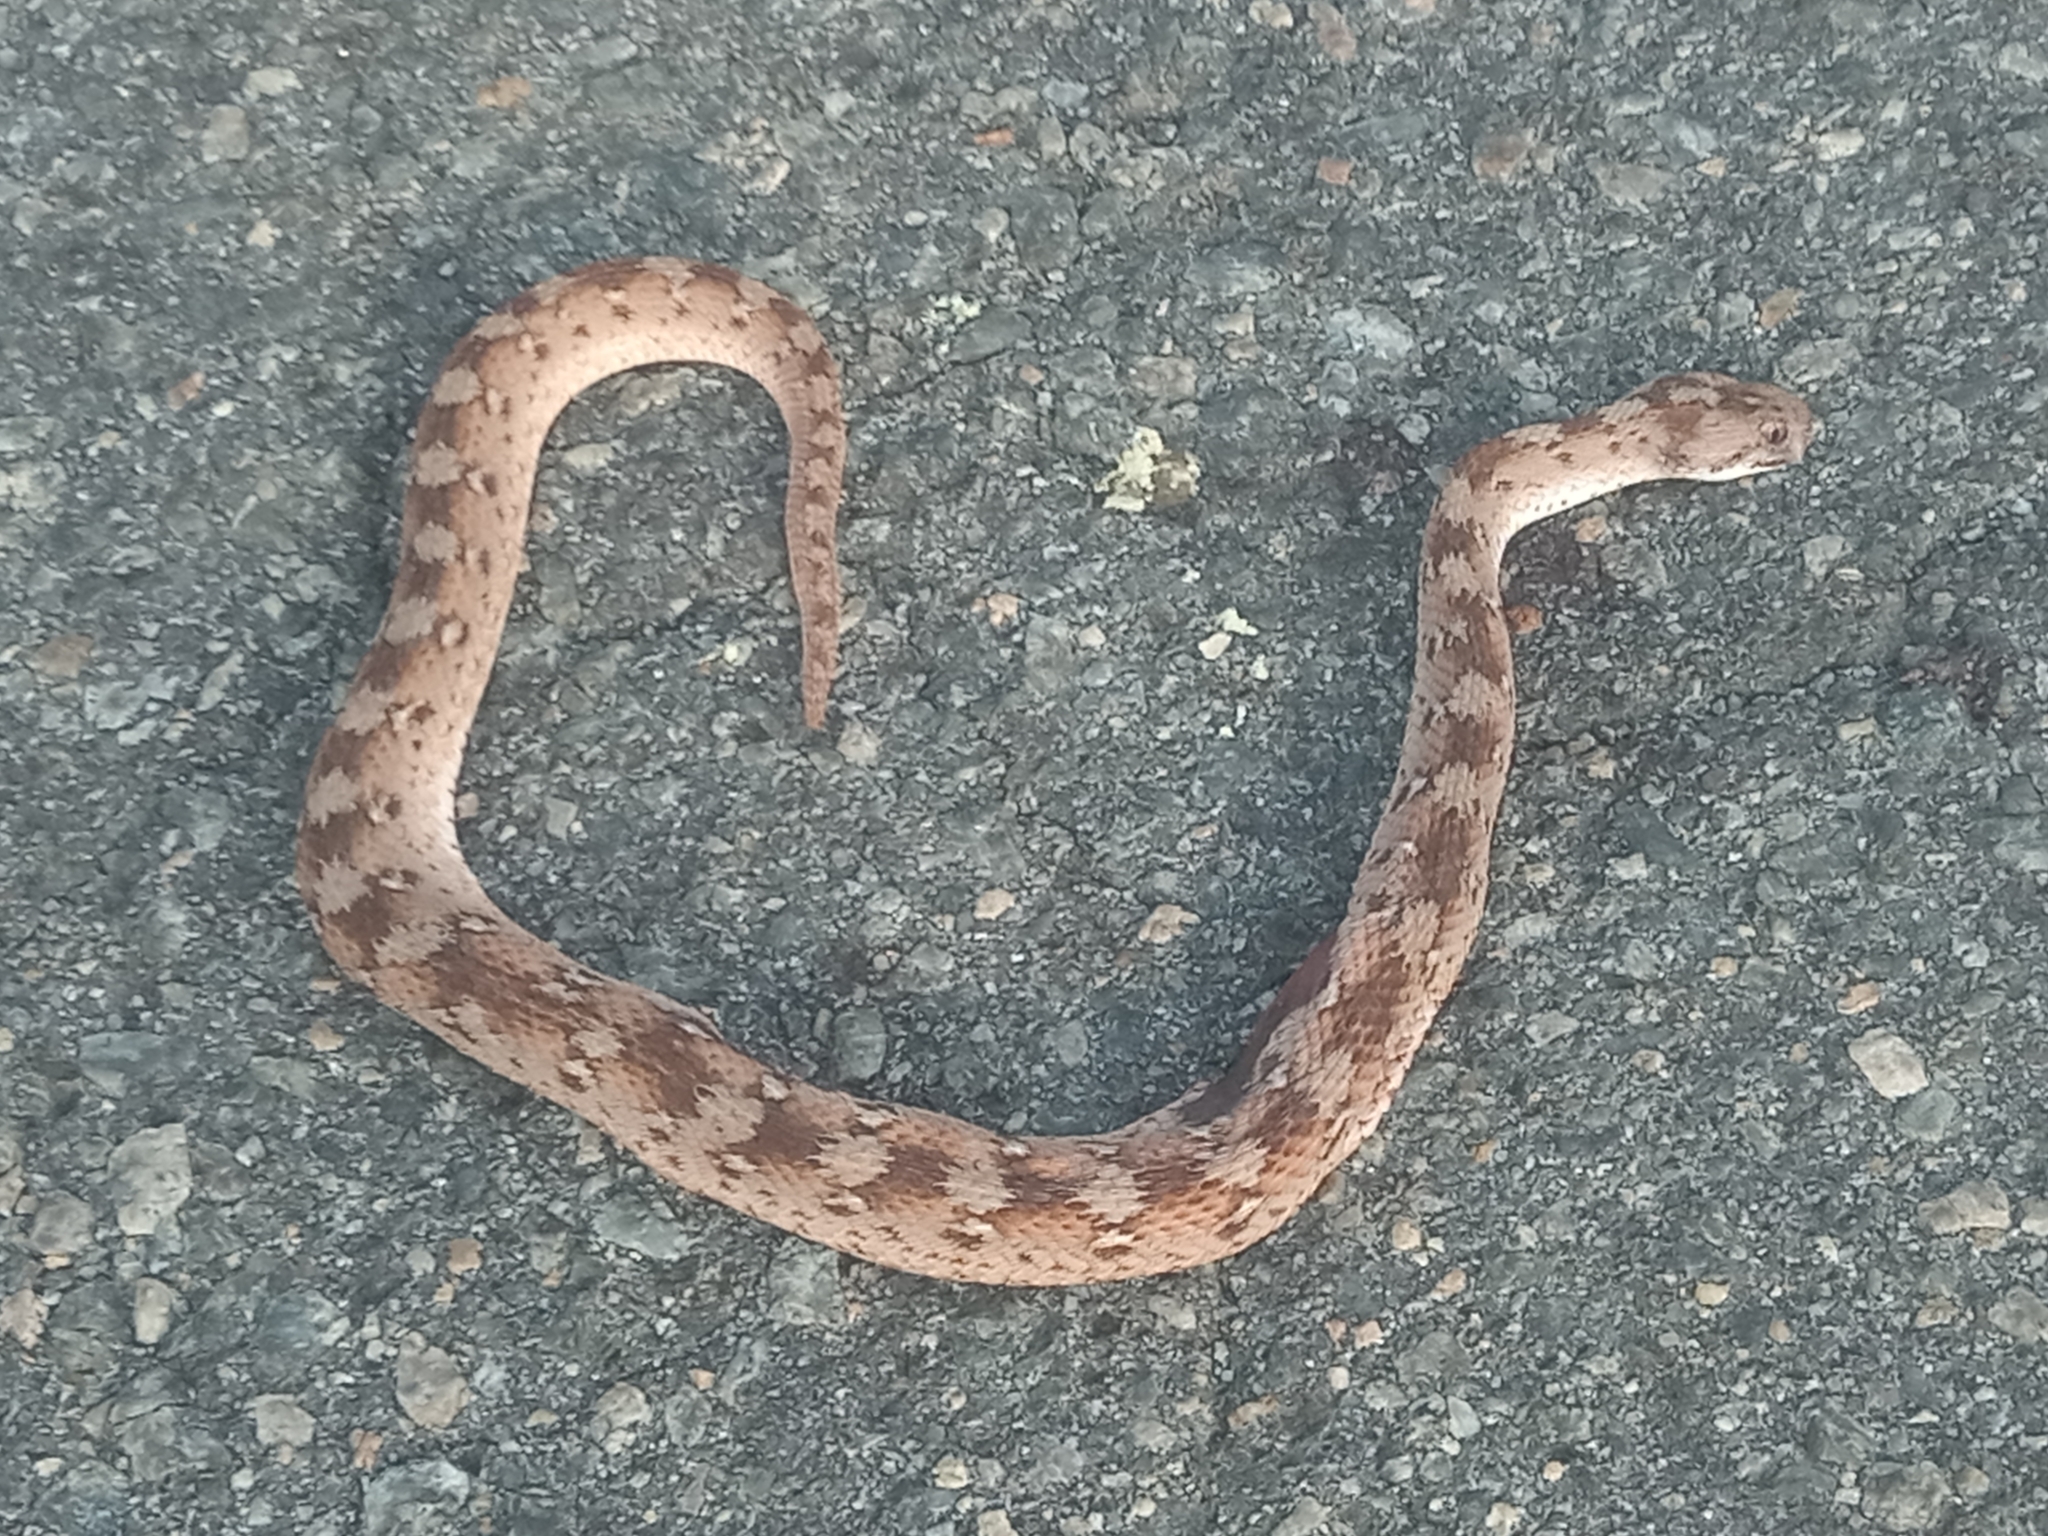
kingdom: Animalia
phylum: Chordata
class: Squamata
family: Viperidae
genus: Echis
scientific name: Echis romani
